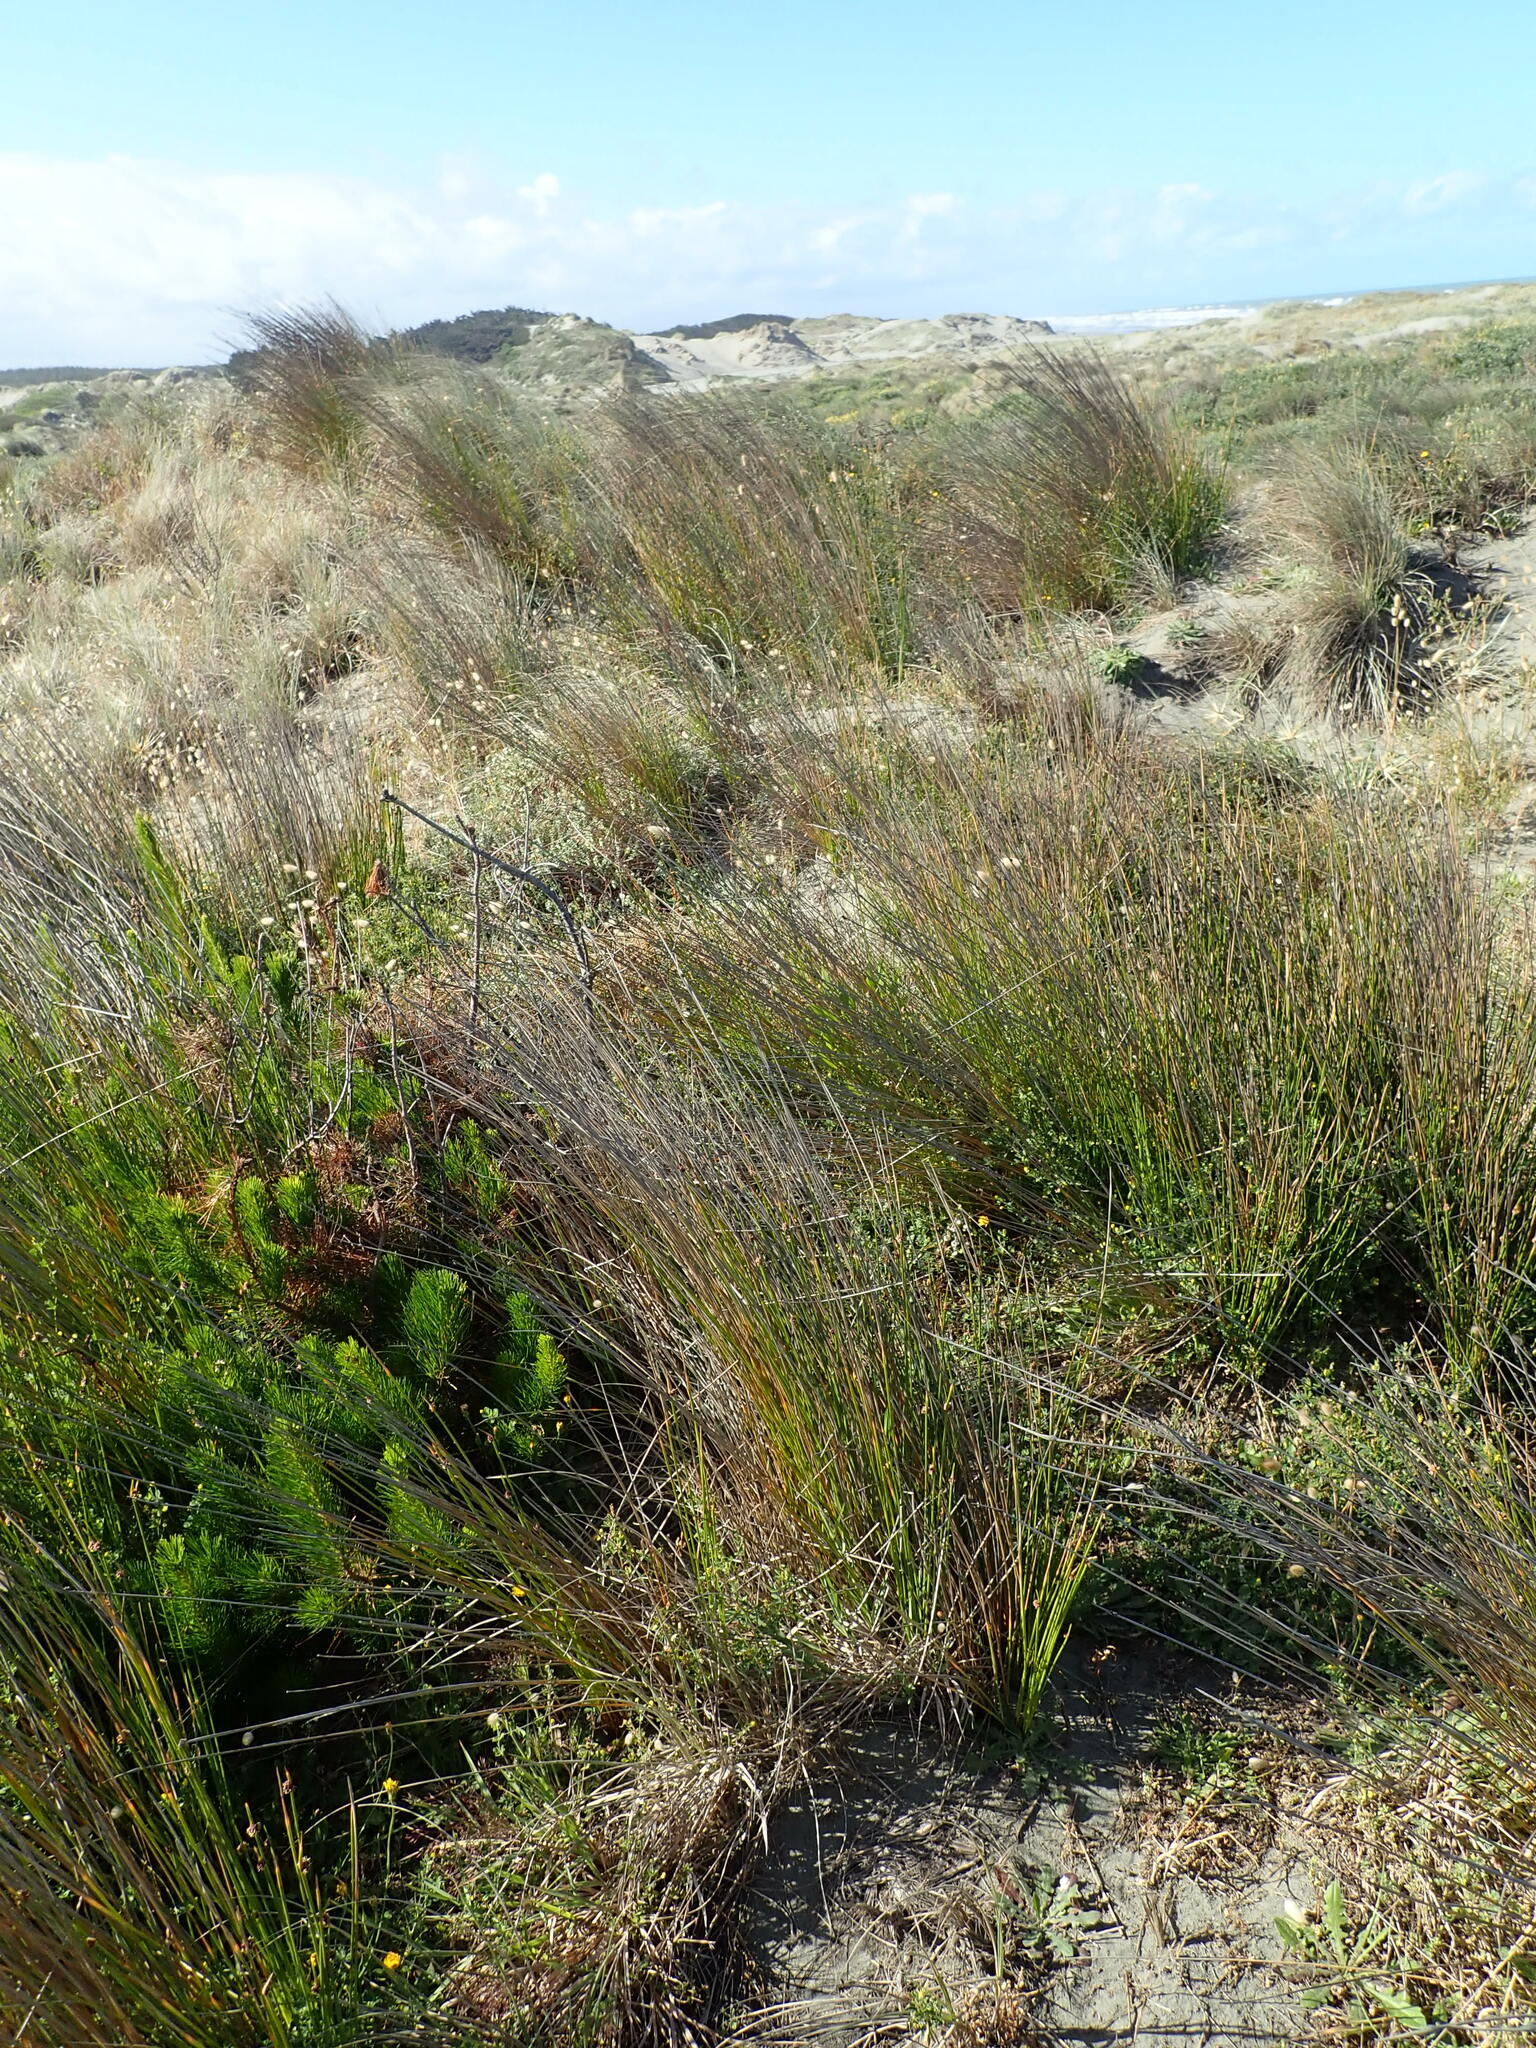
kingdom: Plantae
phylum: Tracheophyta
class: Pinopsida
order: Pinales
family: Pinaceae
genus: Pinus
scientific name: Pinus radiata
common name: Monterey pine
